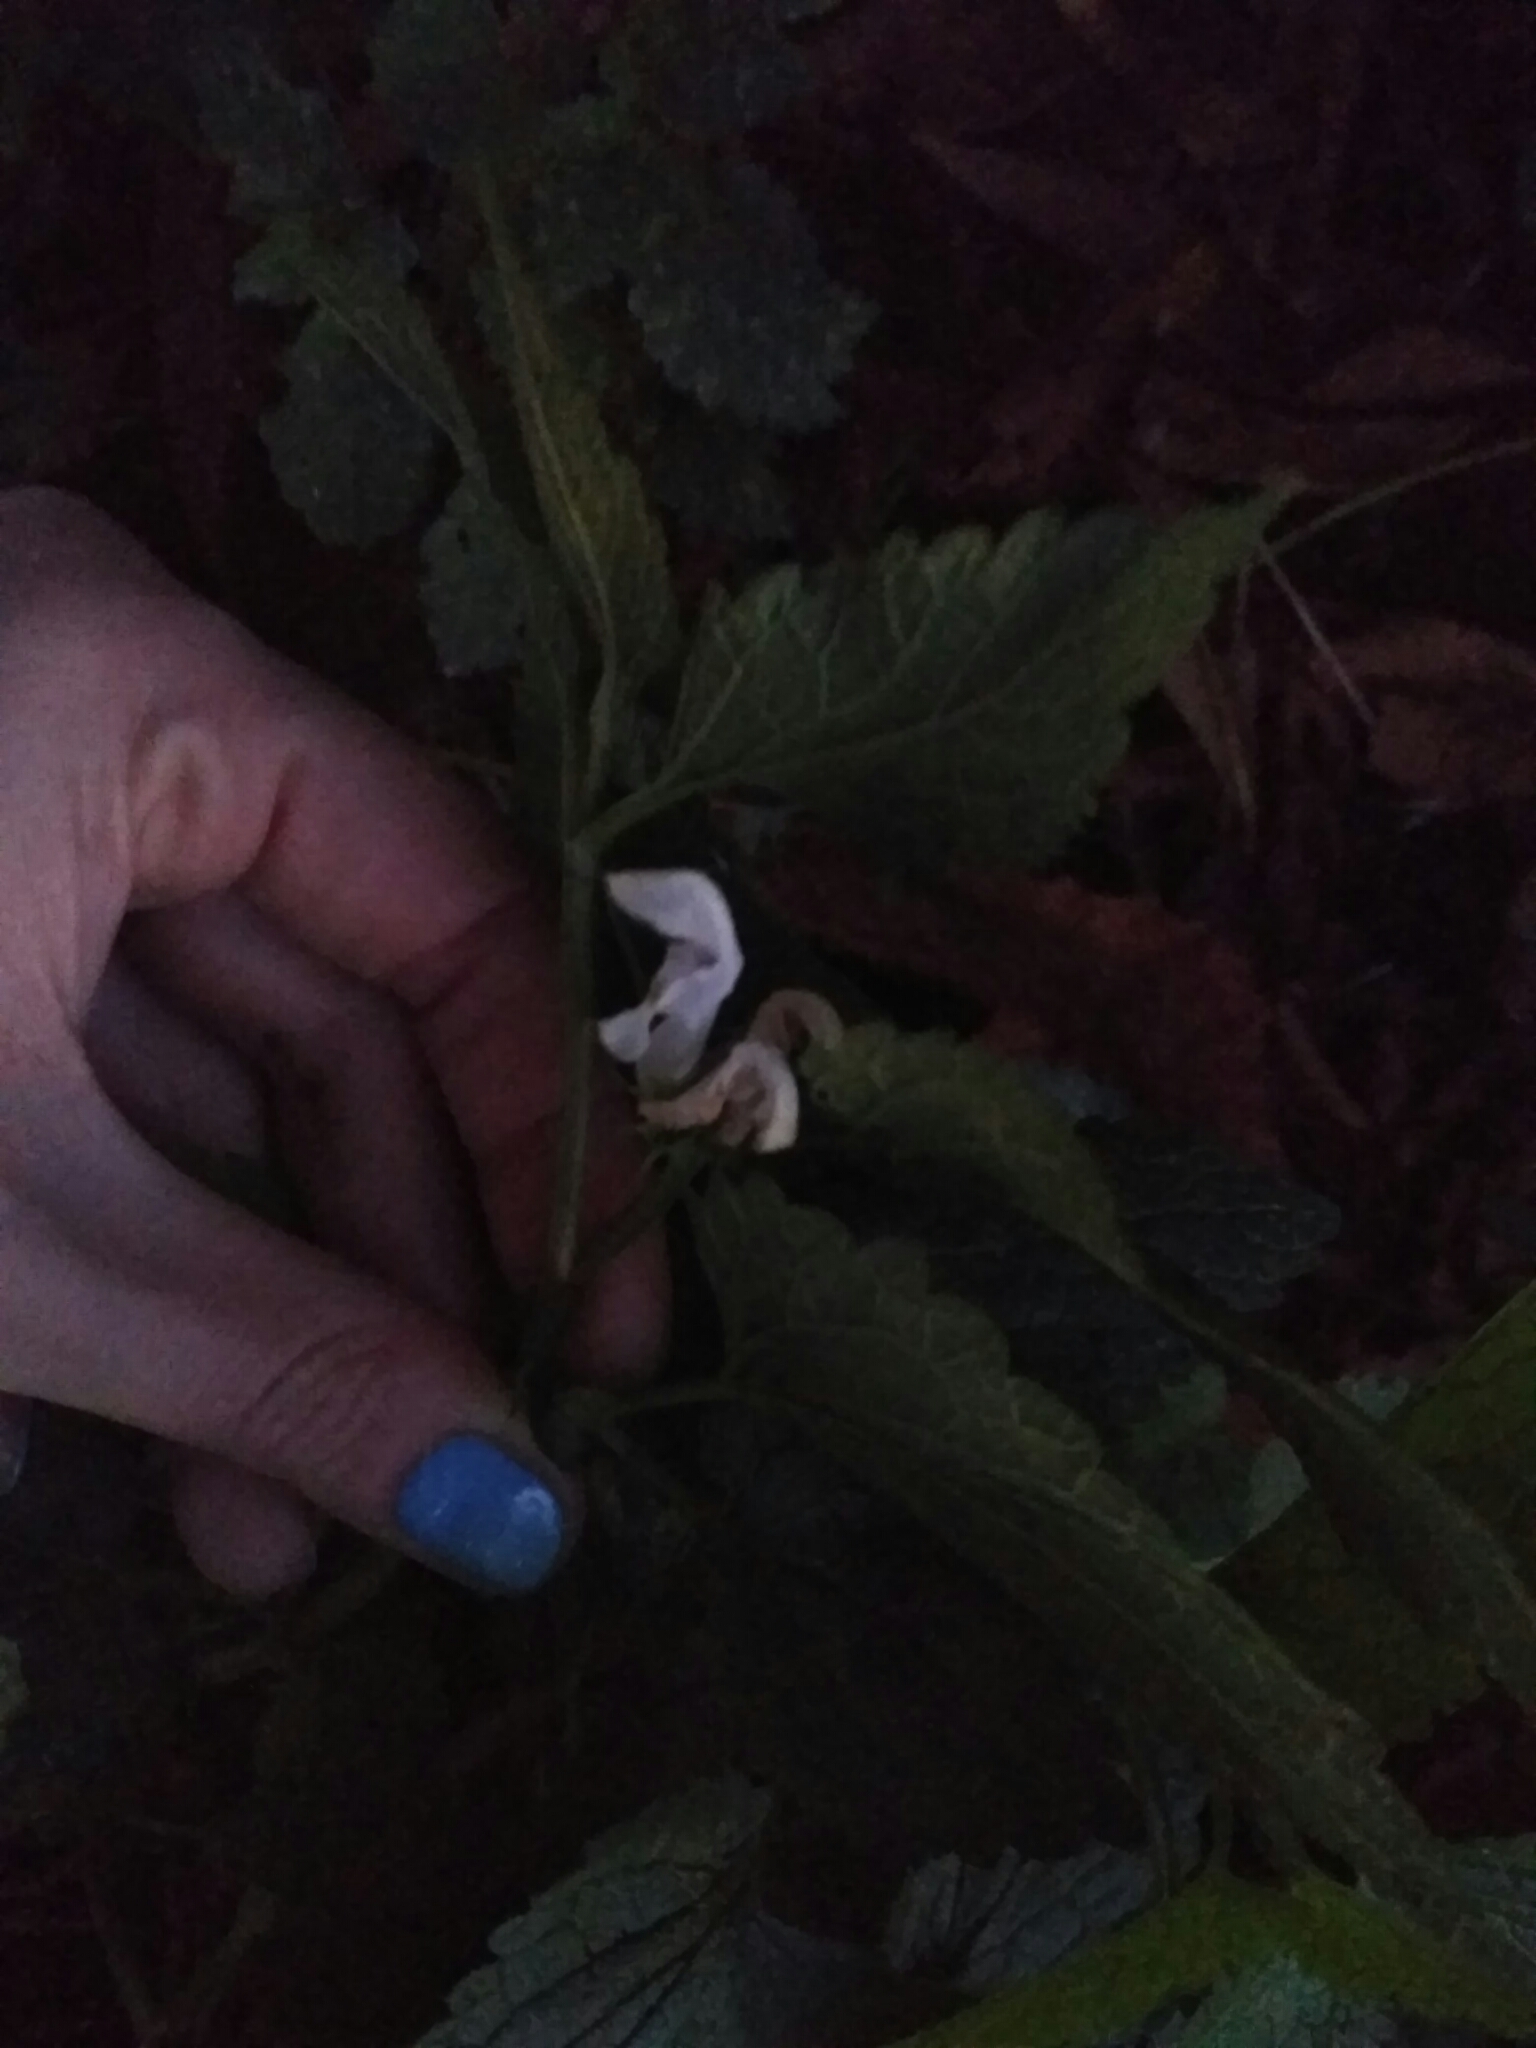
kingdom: Plantae
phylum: Tracheophyta
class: Magnoliopsida
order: Lamiales
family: Lamiaceae
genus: Lamium
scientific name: Lamium album
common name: White dead-nettle
